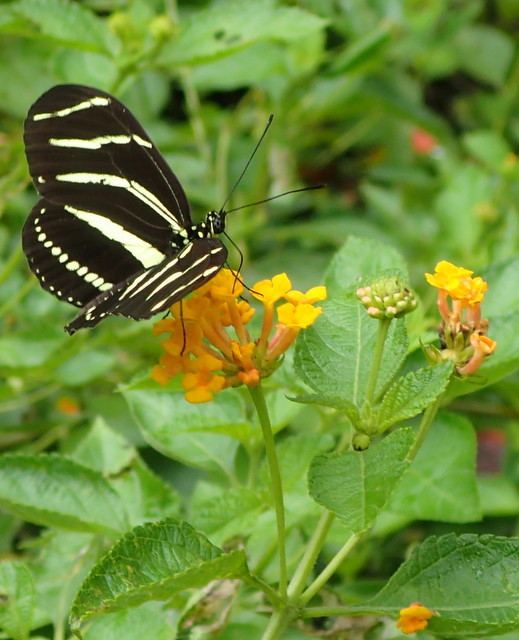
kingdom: Animalia
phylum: Arthropoda
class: Insecta
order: Lepidoptera
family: Nymphalidae
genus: Heliconius
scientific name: Heliconius charithonia
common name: Zebra long wing
